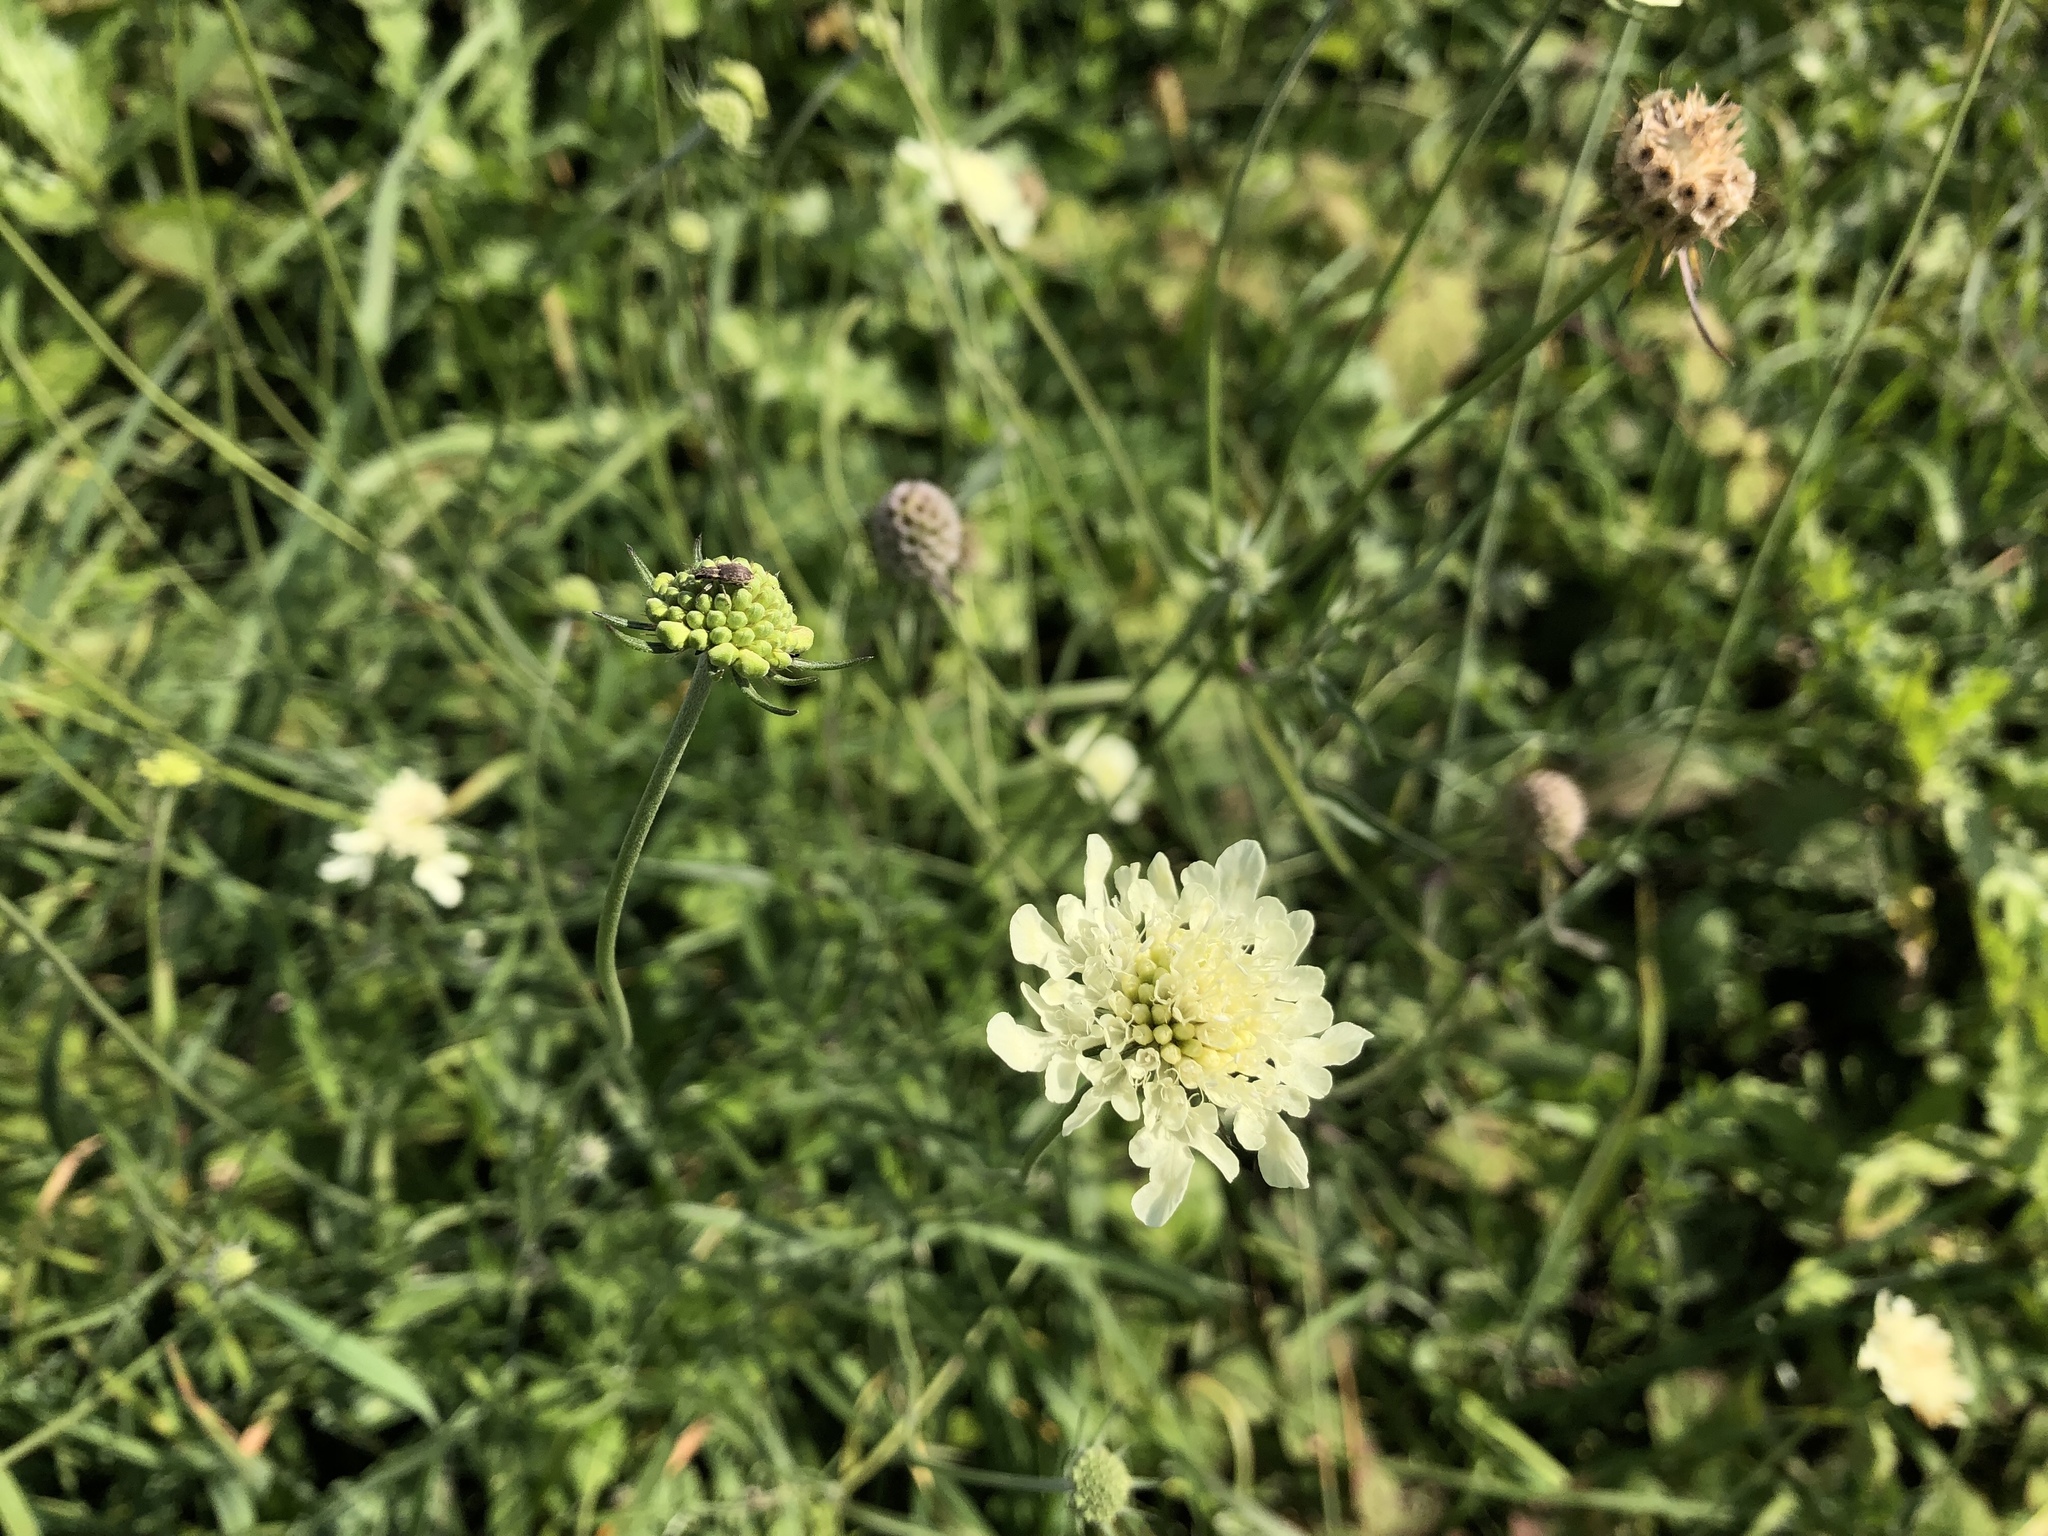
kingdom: Plantae
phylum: Tracheophyta
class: Magnoliopsida
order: Dipsacales
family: Caprifoliaceae
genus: Scabiosa
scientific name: Scabiosa ochroleuca
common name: Cream pincushions
